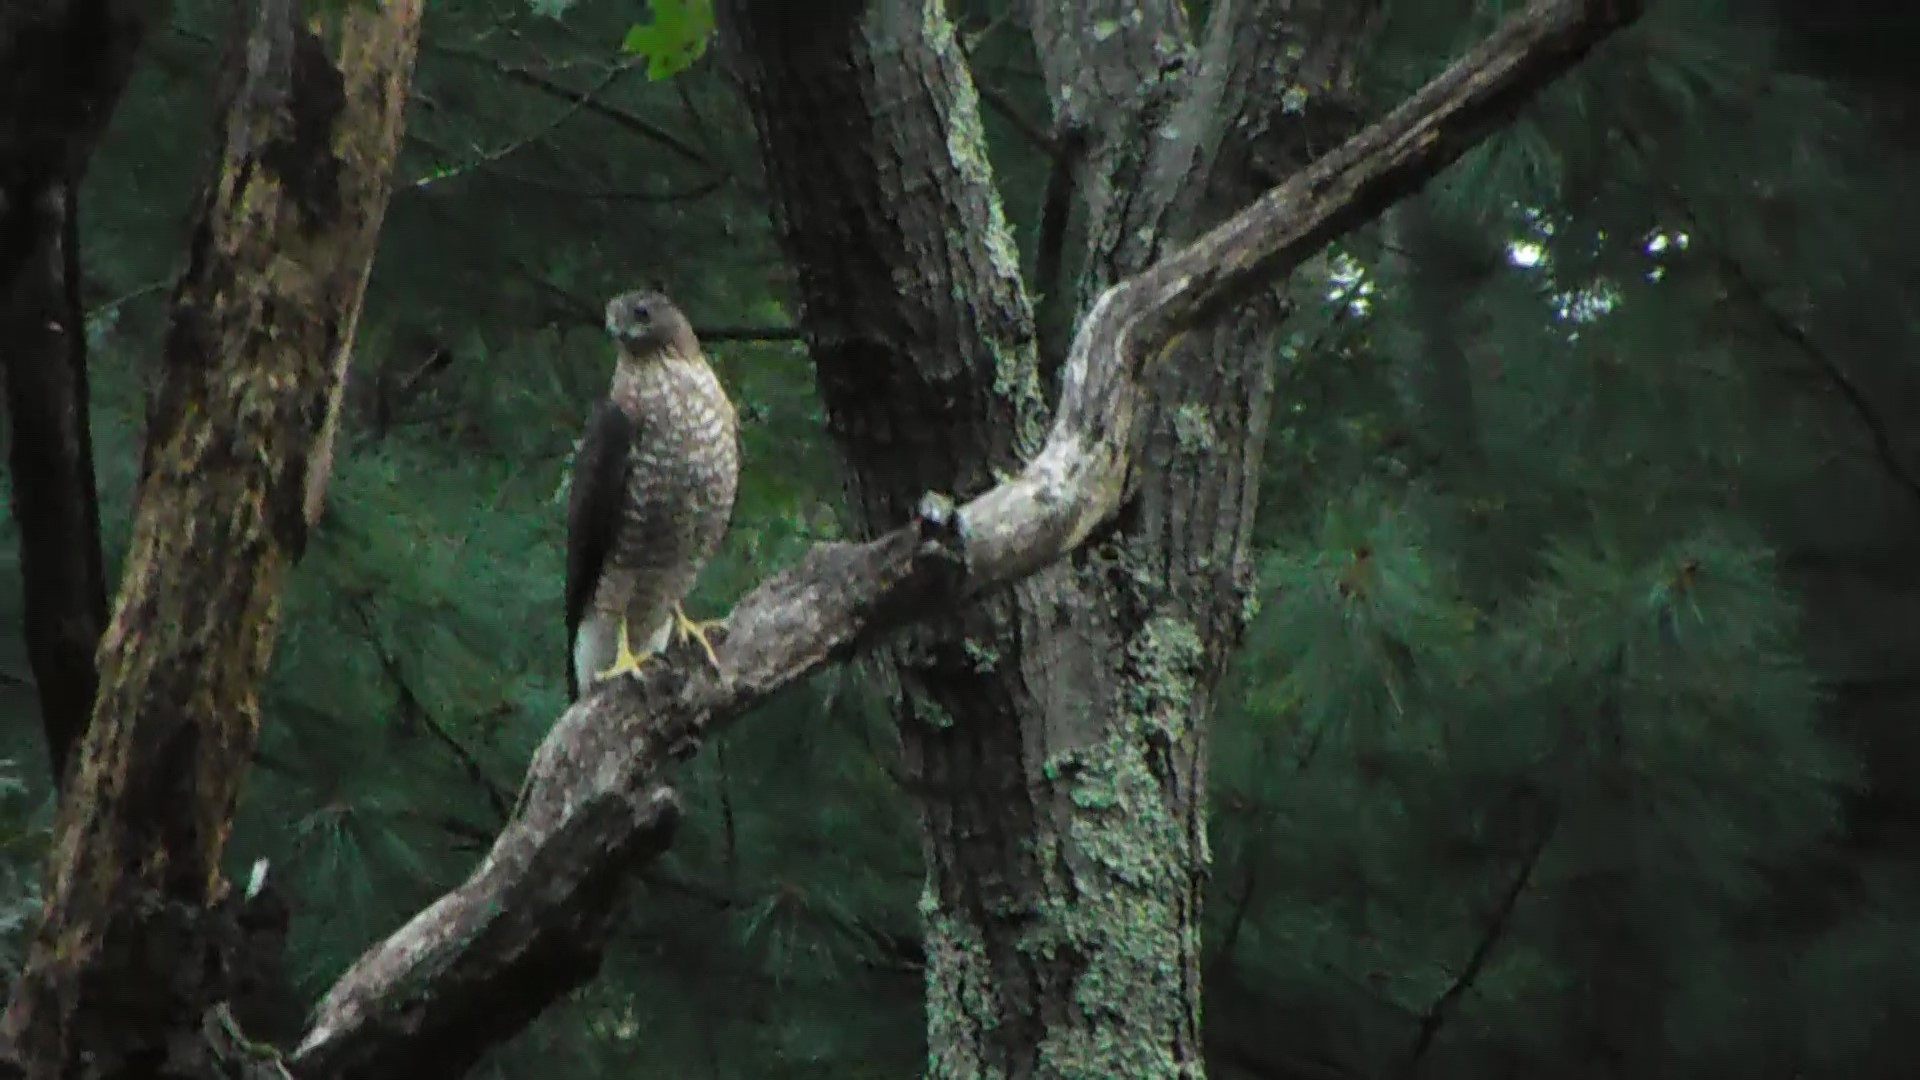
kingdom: Animalia
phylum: Chordata
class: Aves
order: Accipitriformes
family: Accipitridae
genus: Accipiter
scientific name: Accipiter cooperii
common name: Cooper's hawk
